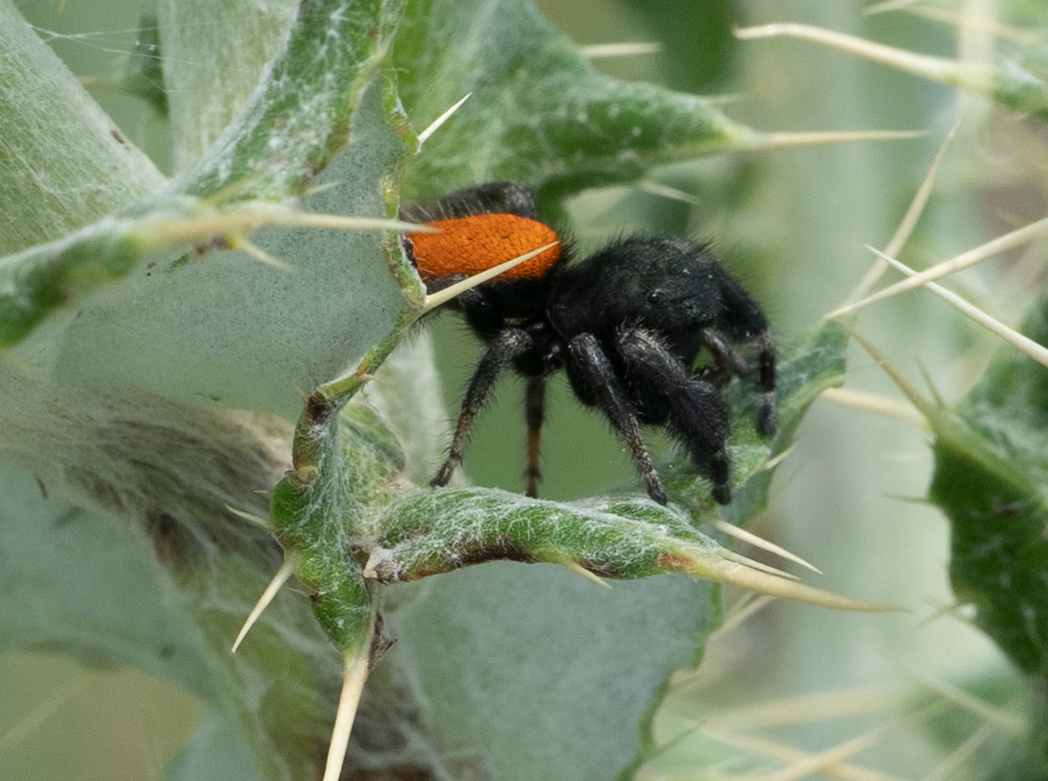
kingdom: Animalia
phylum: Arthropoda
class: Arachnida
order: Araneae
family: Salticidae
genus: Phidippus
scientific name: Phidippus ardens
